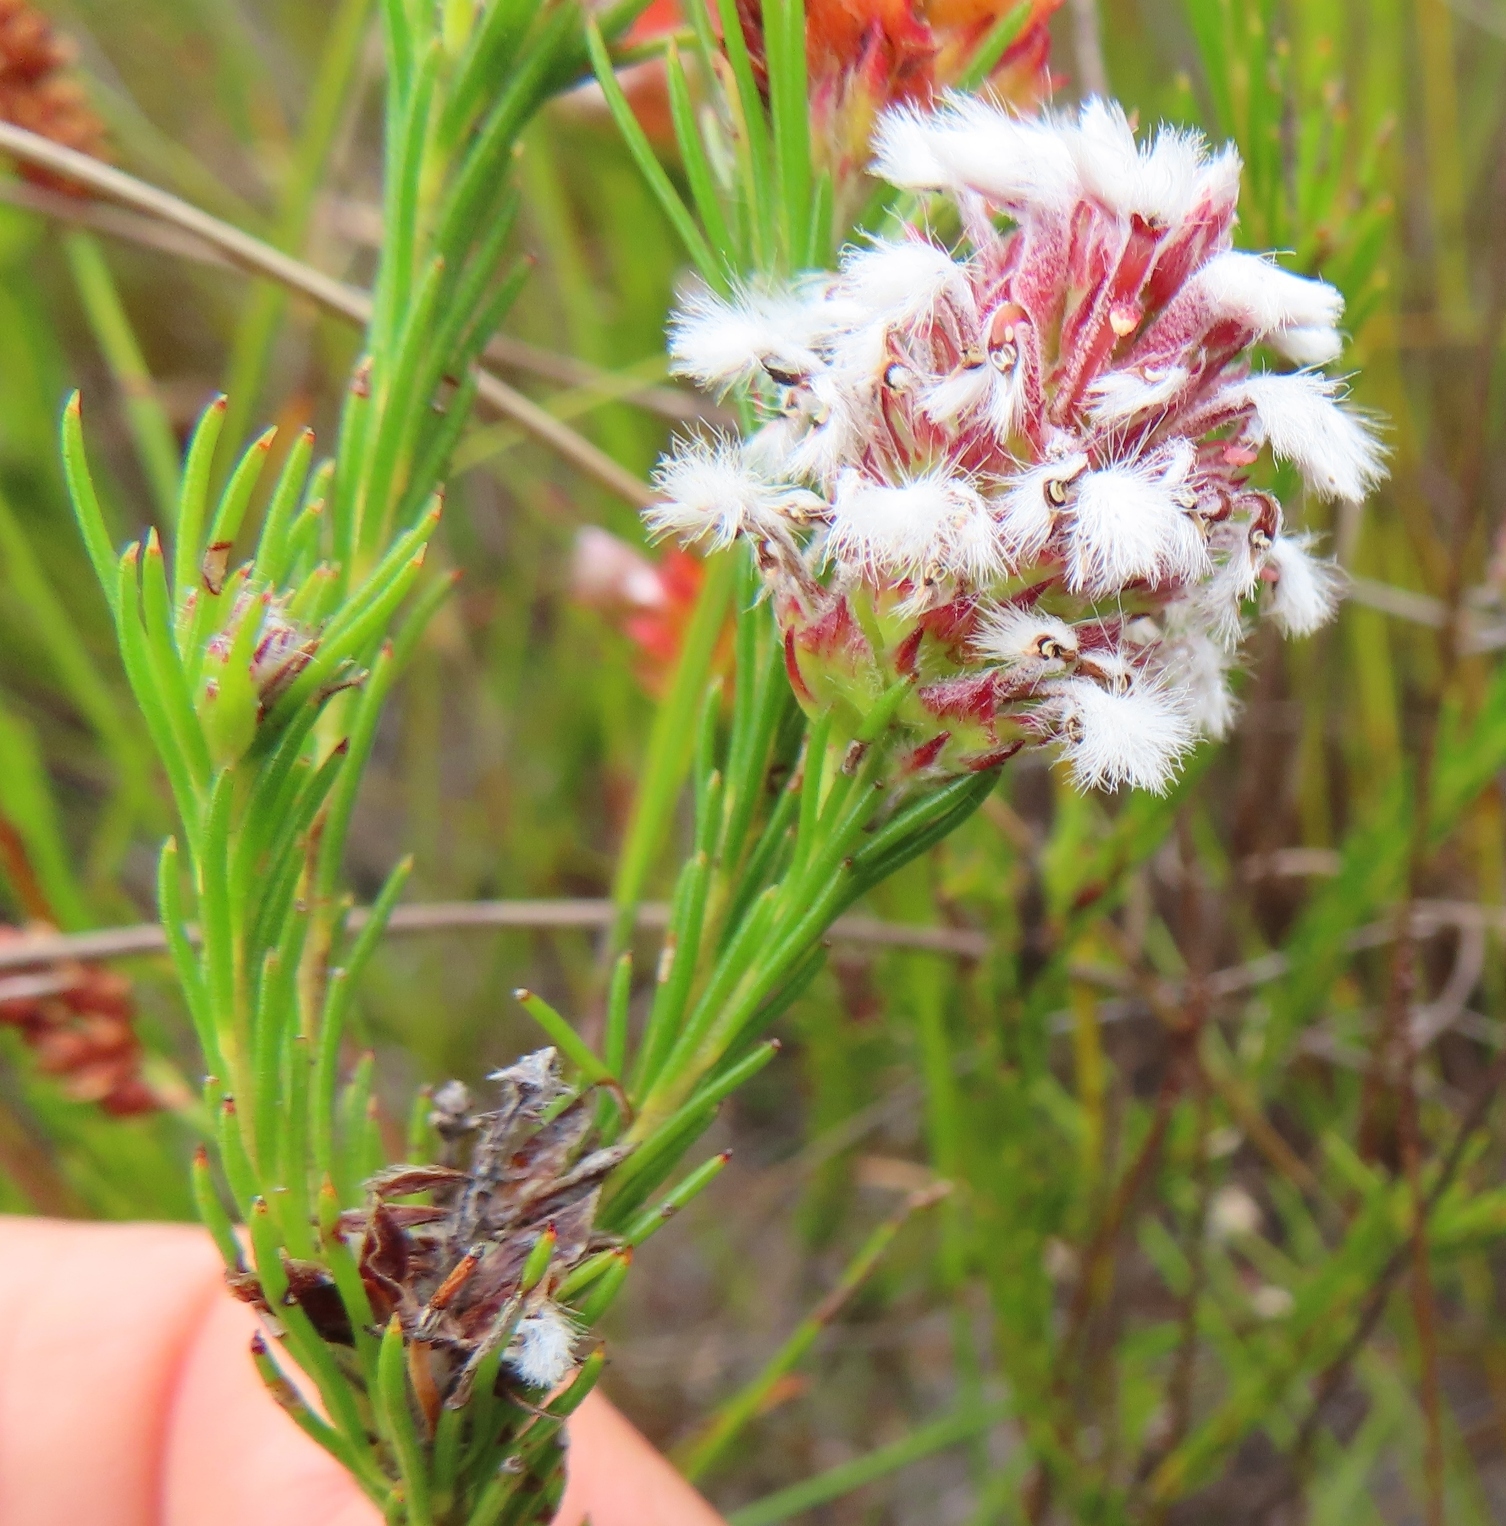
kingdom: Plantae
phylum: Tracheophyta
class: Magnoliopsida
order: Proteales
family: Proteaceae
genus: Spatalla
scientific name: Spatalla squamata
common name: Silky spoon
